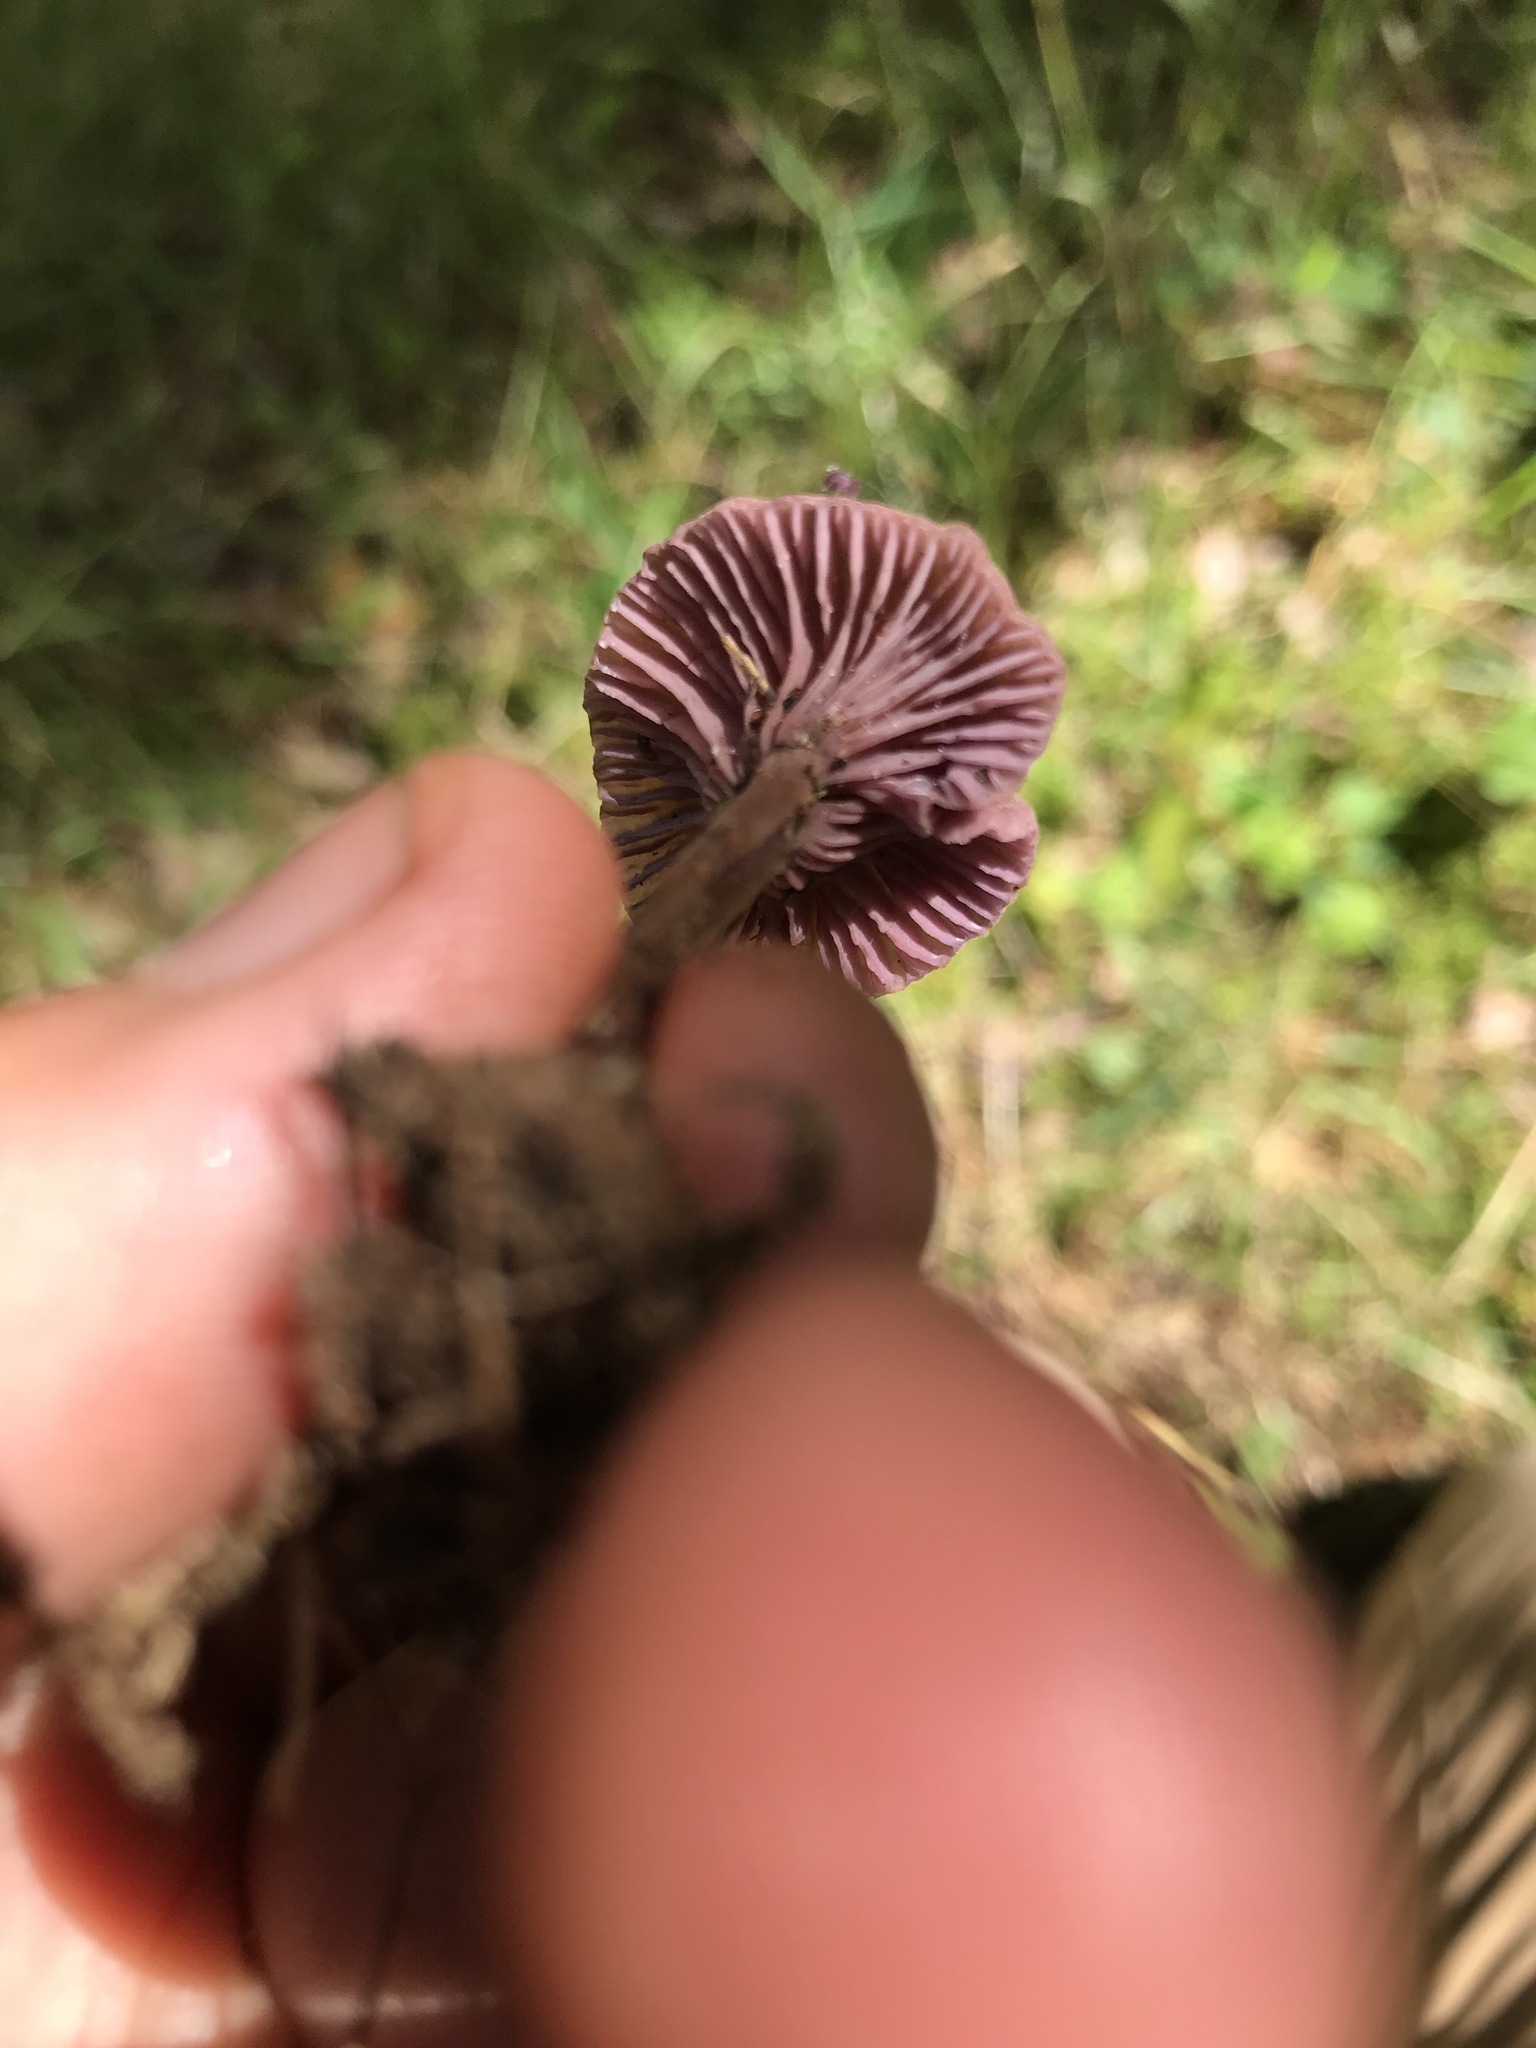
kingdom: Fungi
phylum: Basidiomycota
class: Agaricomycetes
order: Agaricales
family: Hydnangiaceae
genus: Laccaria
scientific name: Laccaria amethystina
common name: Amethyst deceiver
